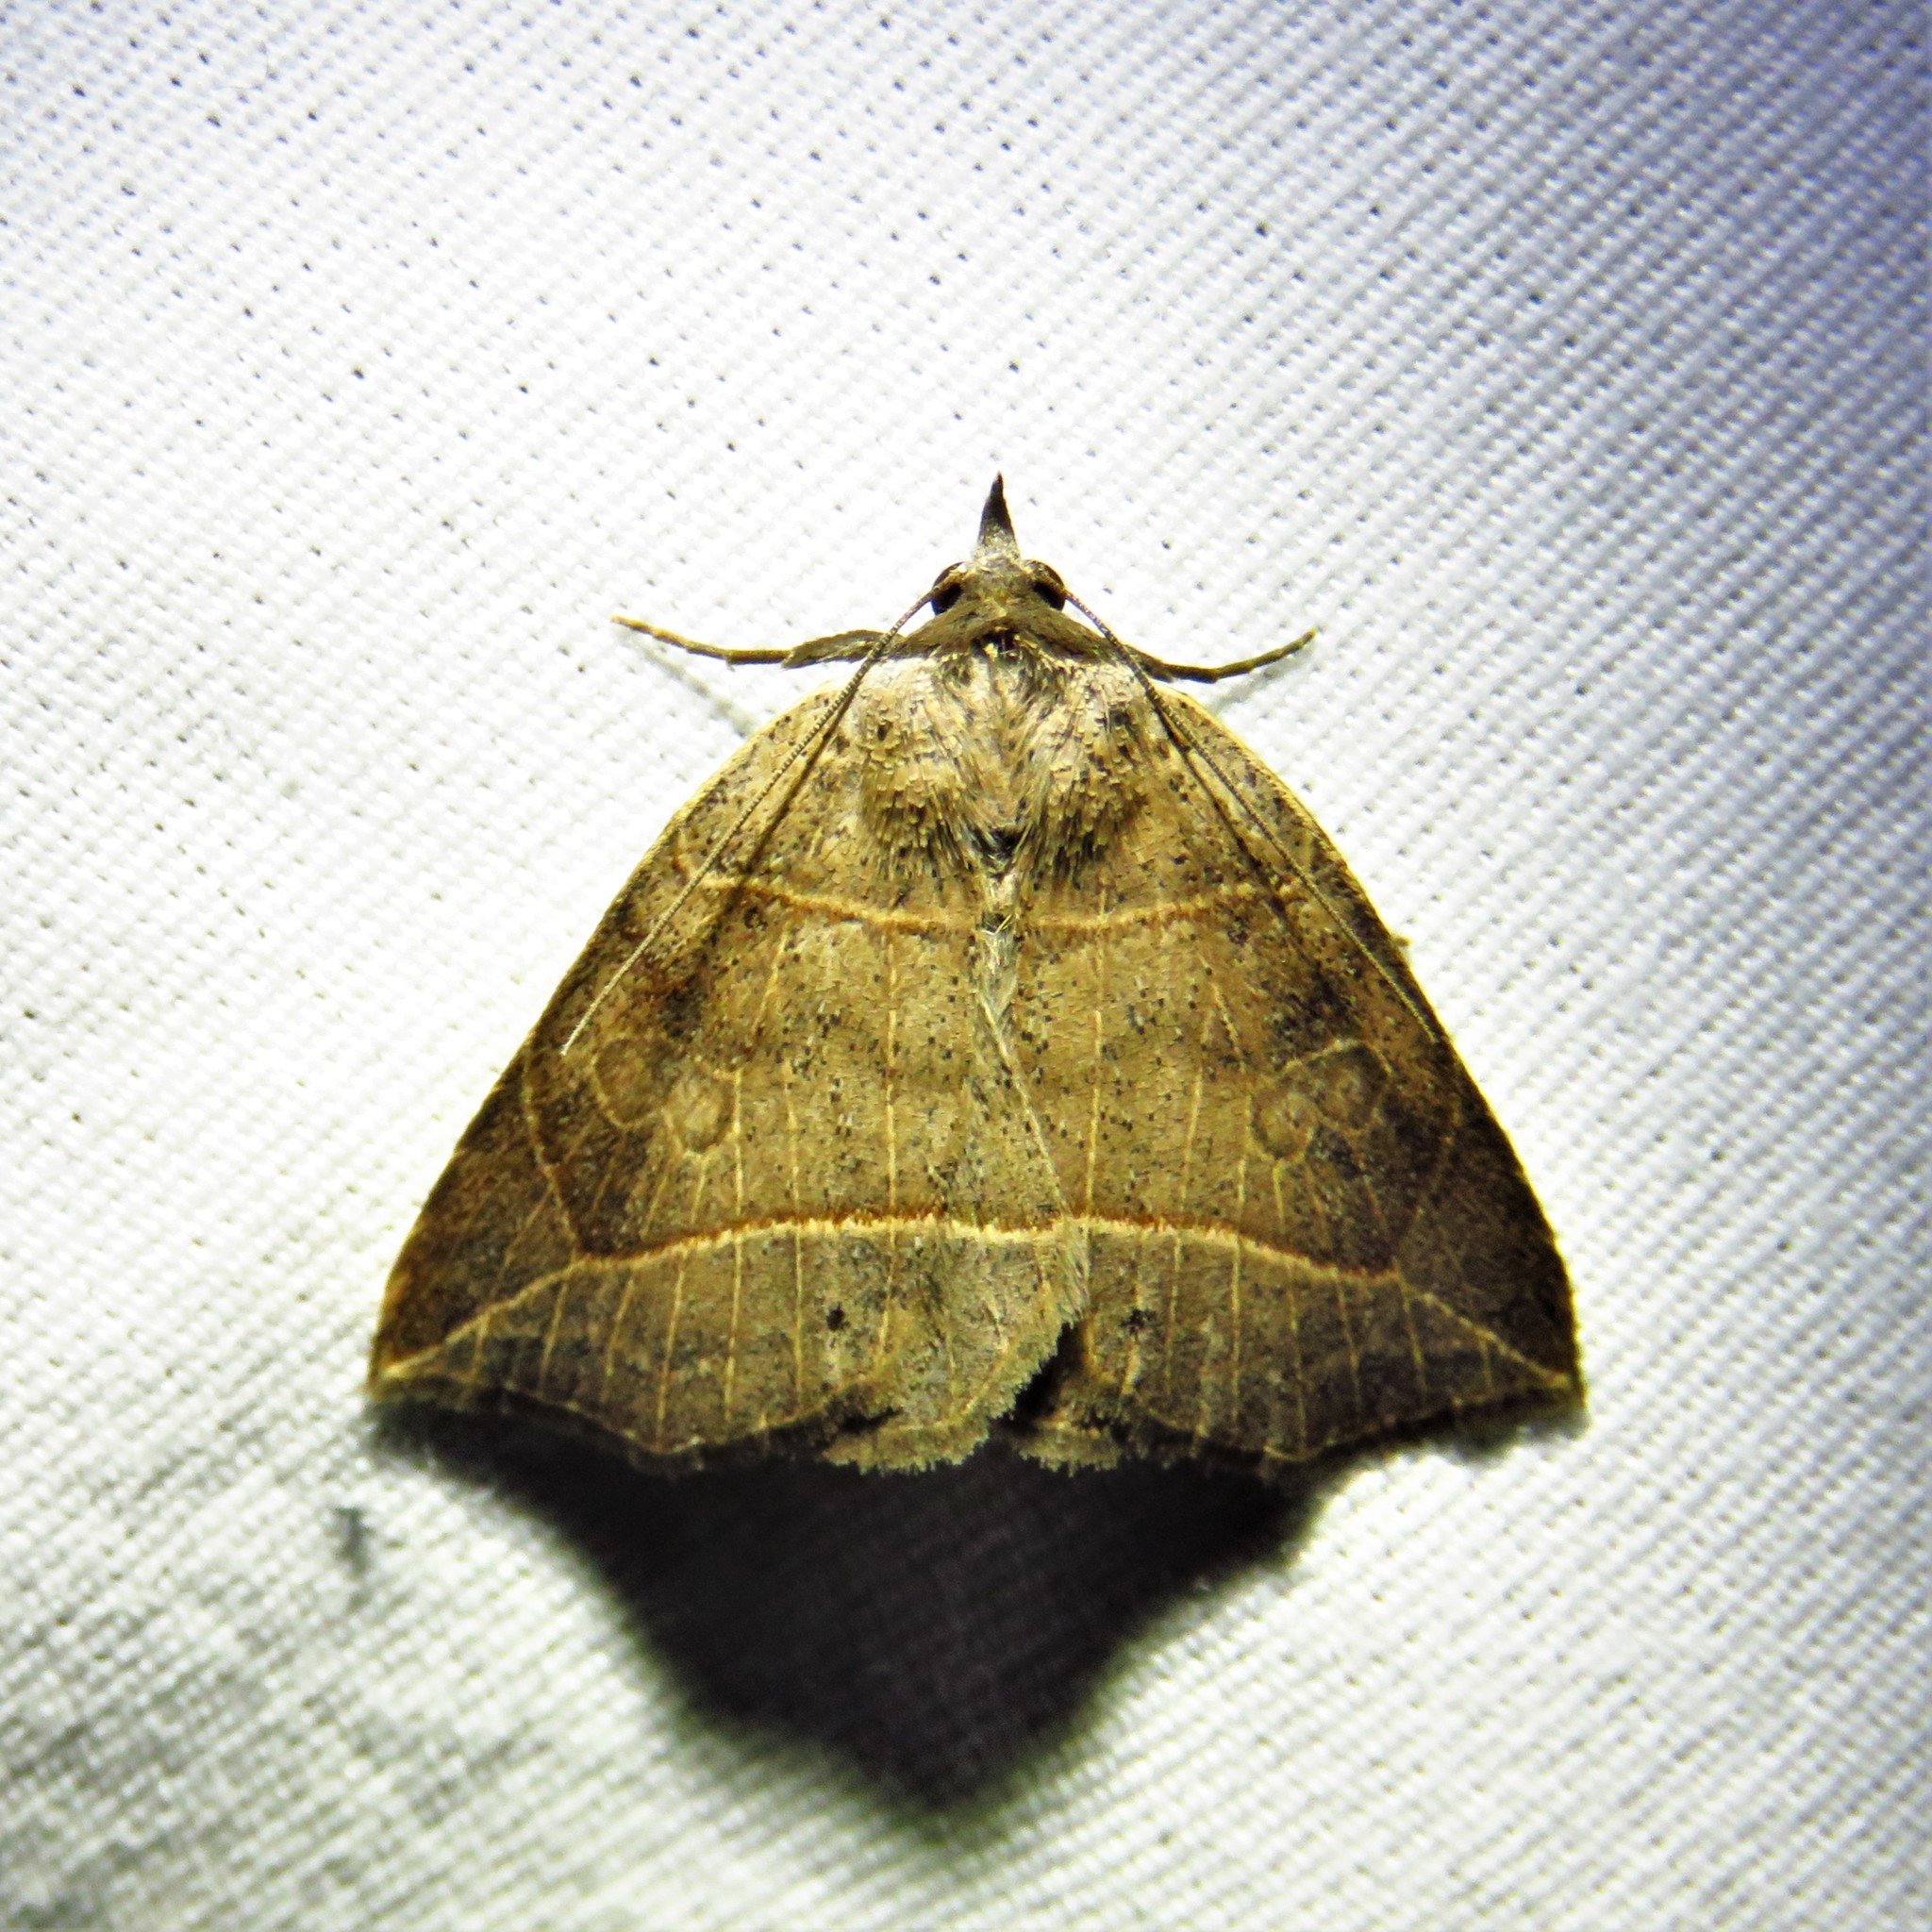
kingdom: Animalia
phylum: Arthropoda
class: Insecta
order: Lepidoptera
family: Erebidae
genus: Isogona
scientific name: Isogona tenuis
